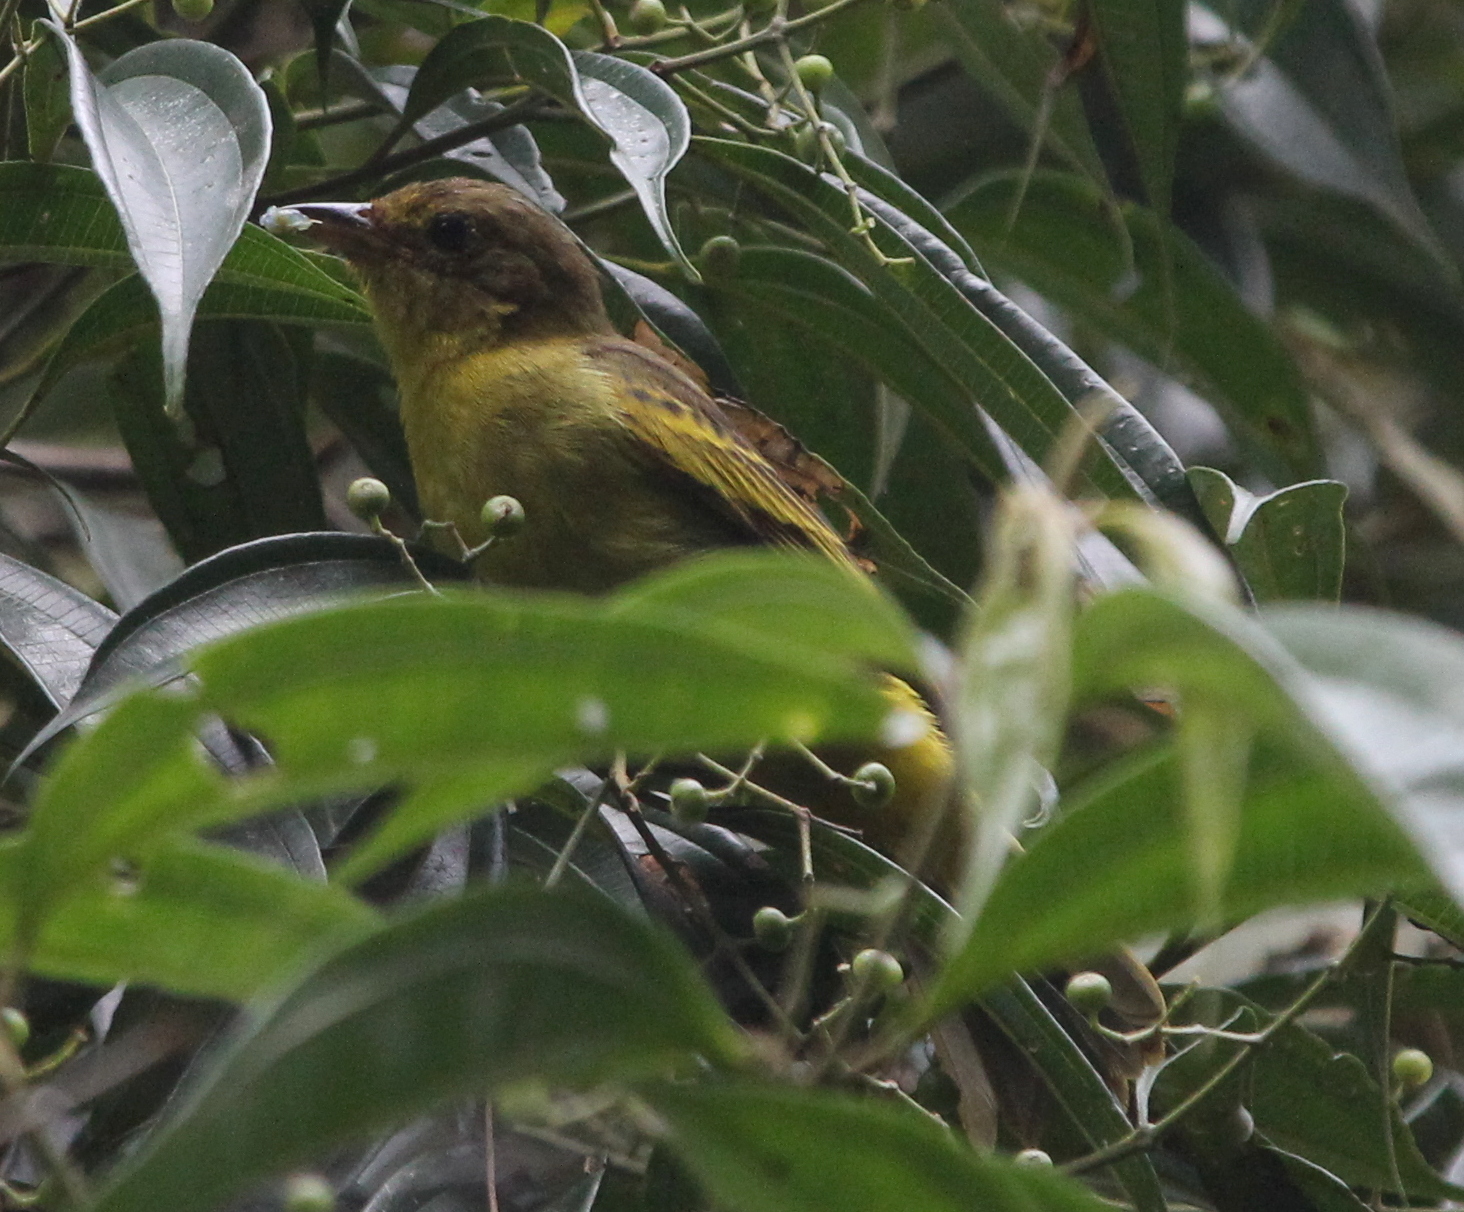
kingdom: Animalia
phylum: Chordata
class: Aves
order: Passeriformes
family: Thraupidae
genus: Hemithraupis
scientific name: Hemithraupis flavicollis
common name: Yellow-backed tanager
